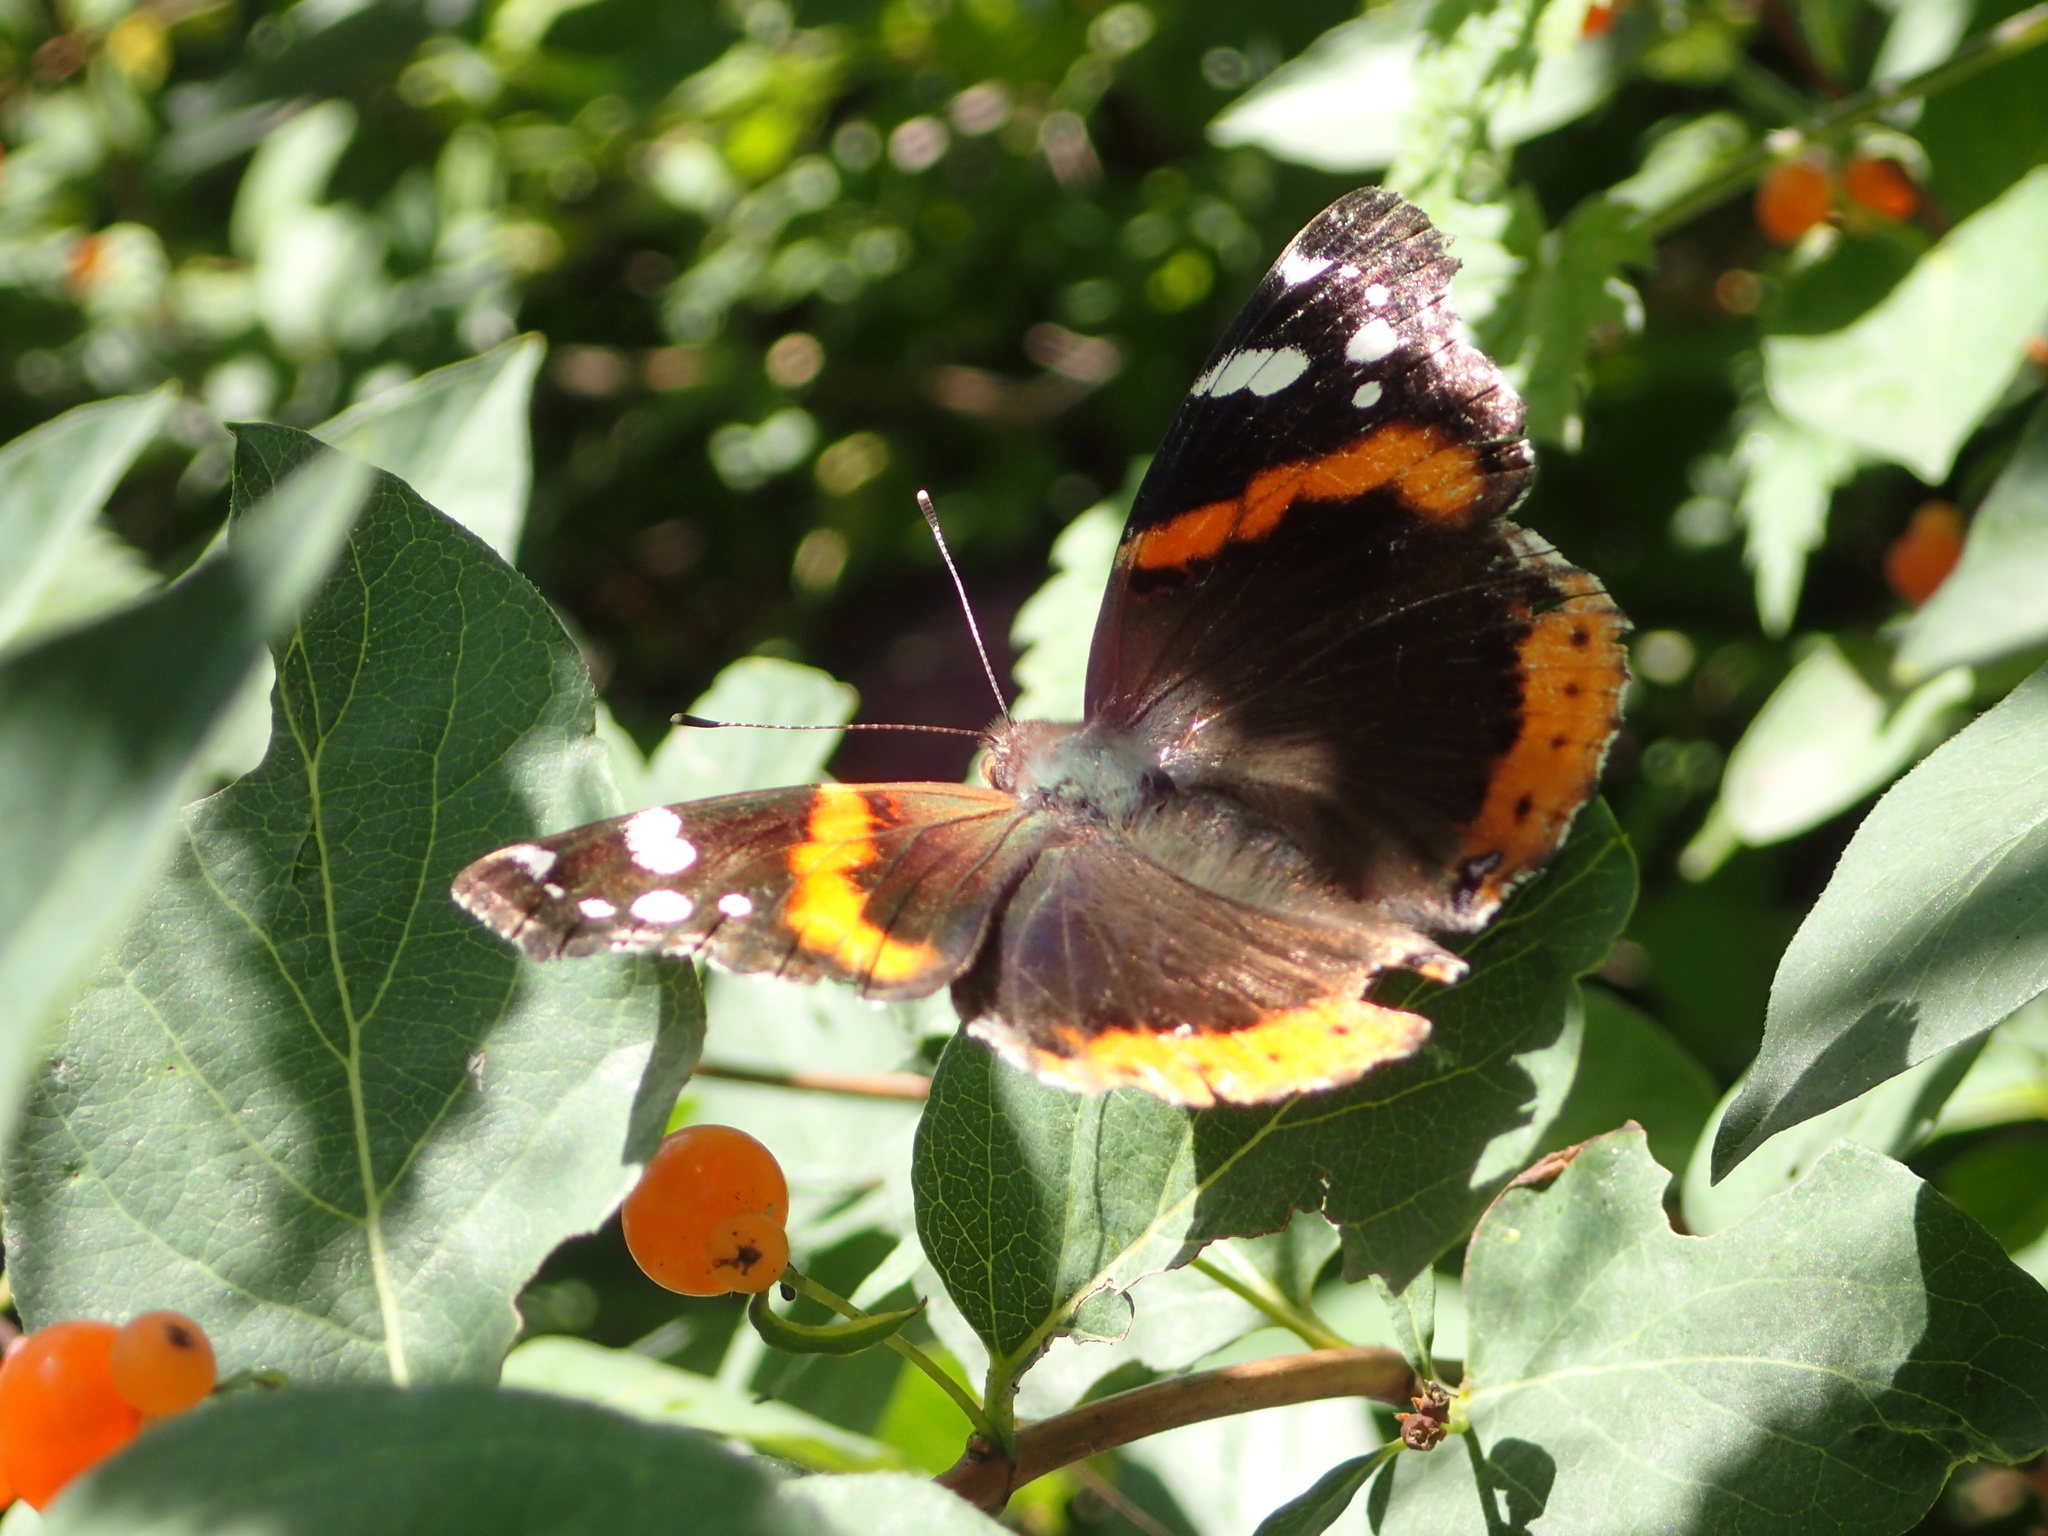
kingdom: Animalia
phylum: Arthropoda
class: Insecta
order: Lepidoptera
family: Nymphalidae
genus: Vanessa
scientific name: Vanessa atalanta
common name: Red admiral
